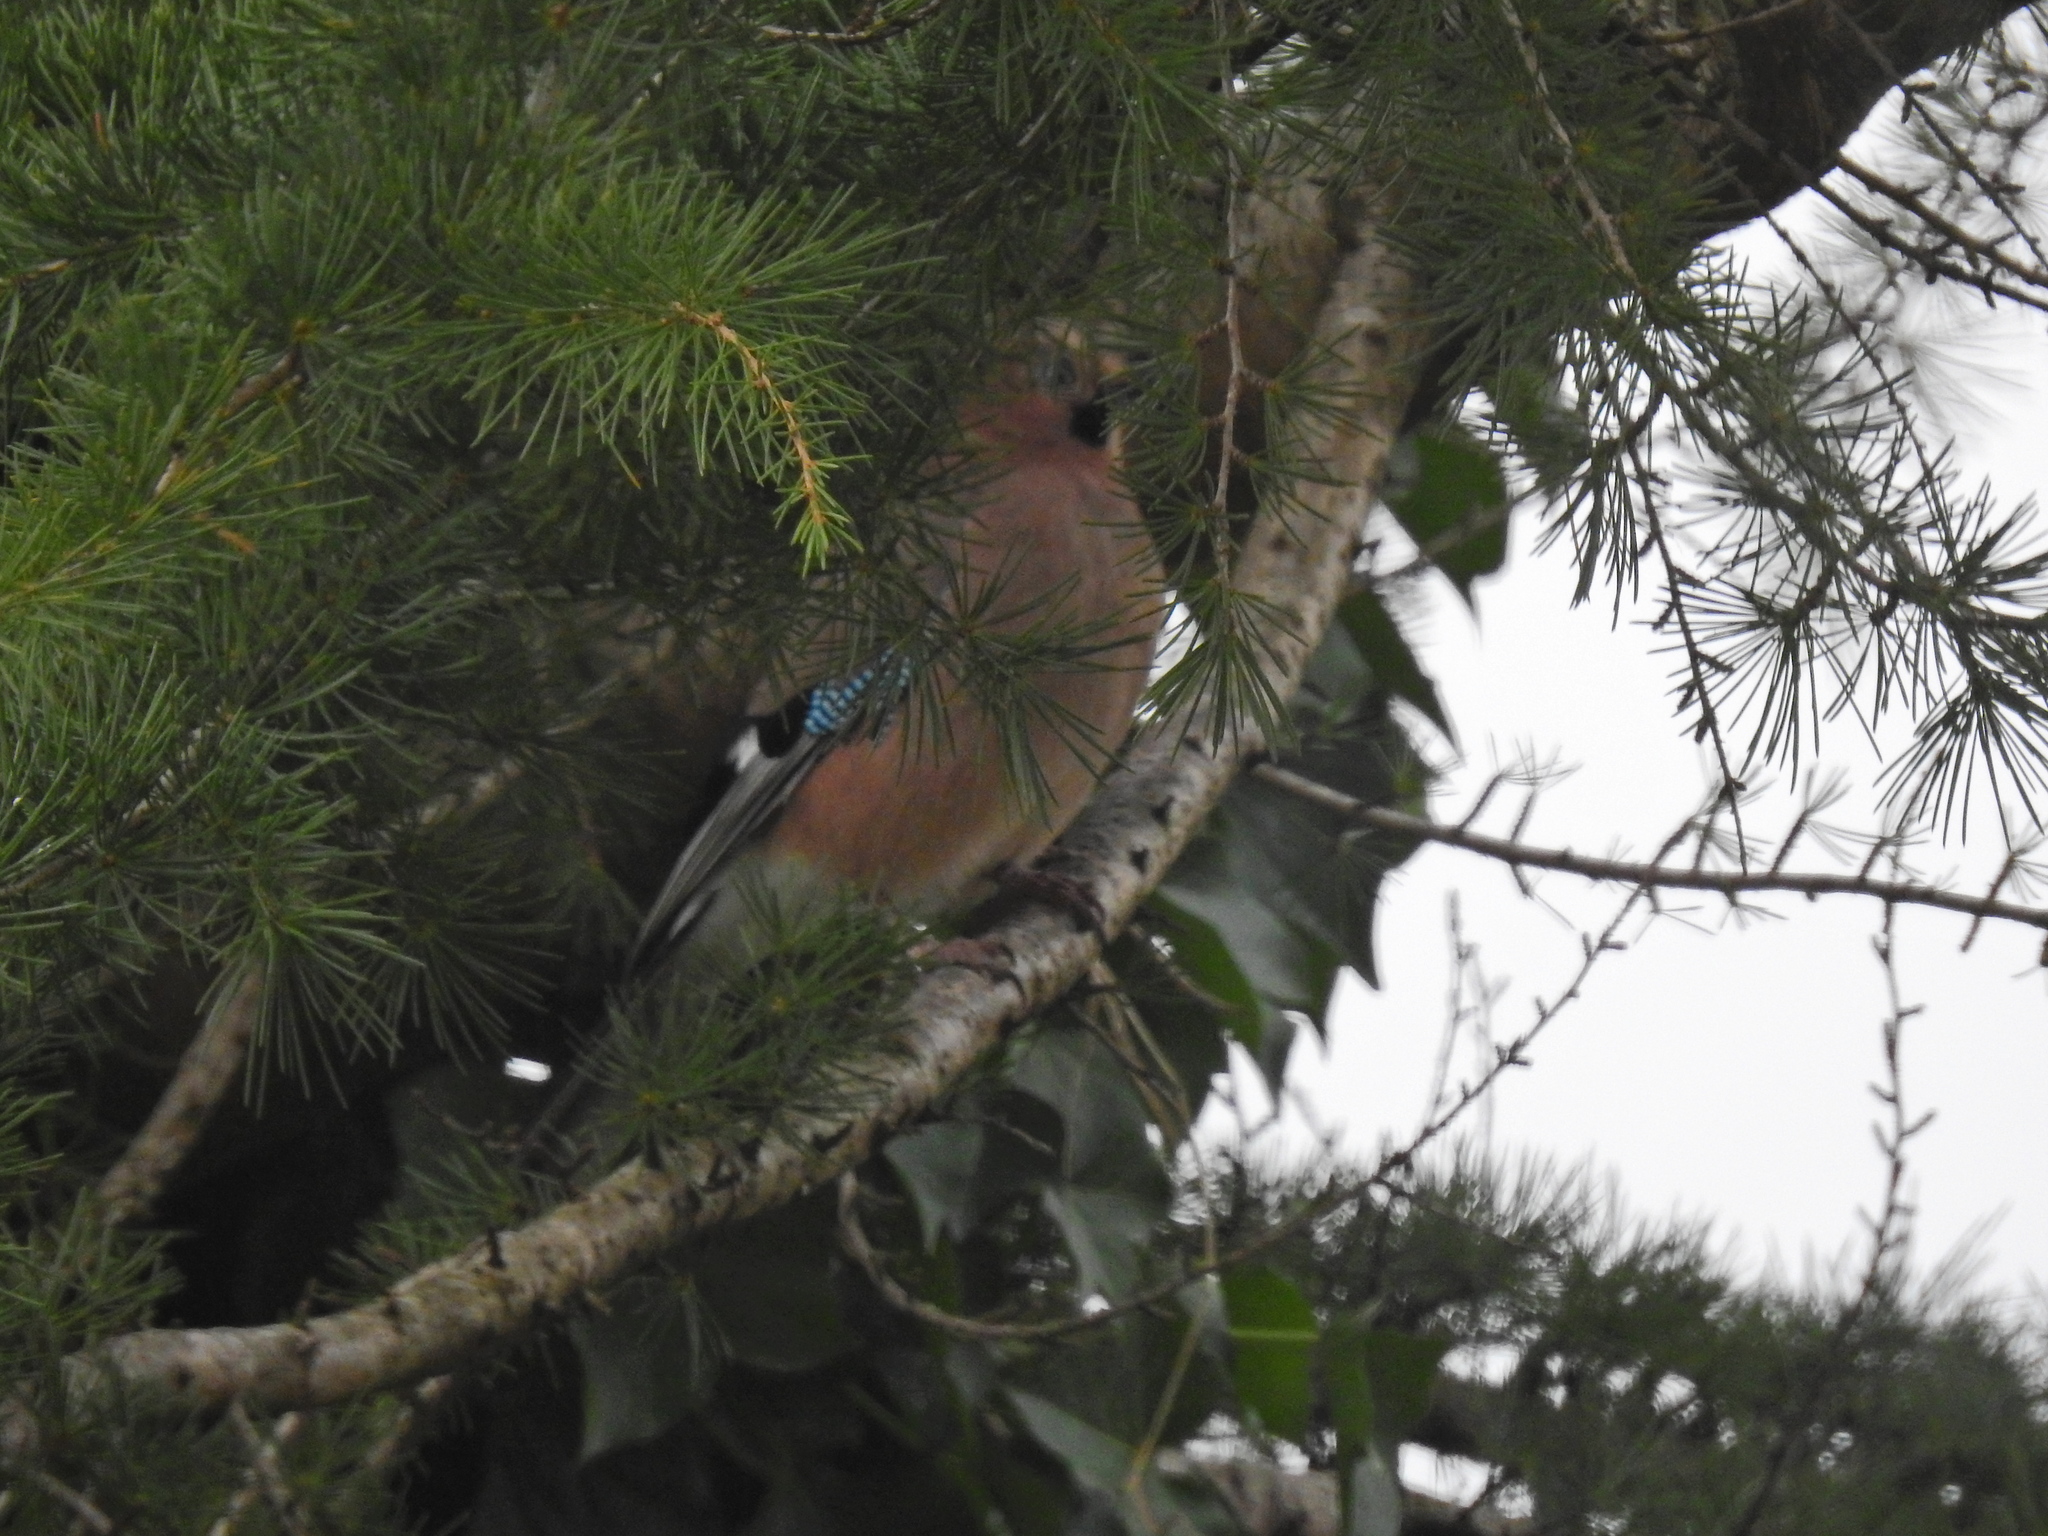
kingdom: Animalia
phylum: Chordata
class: Aves
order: Passeriformes
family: Corvidae
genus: Garrulus
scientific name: Garrulus glandarius
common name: Eurasian jay
